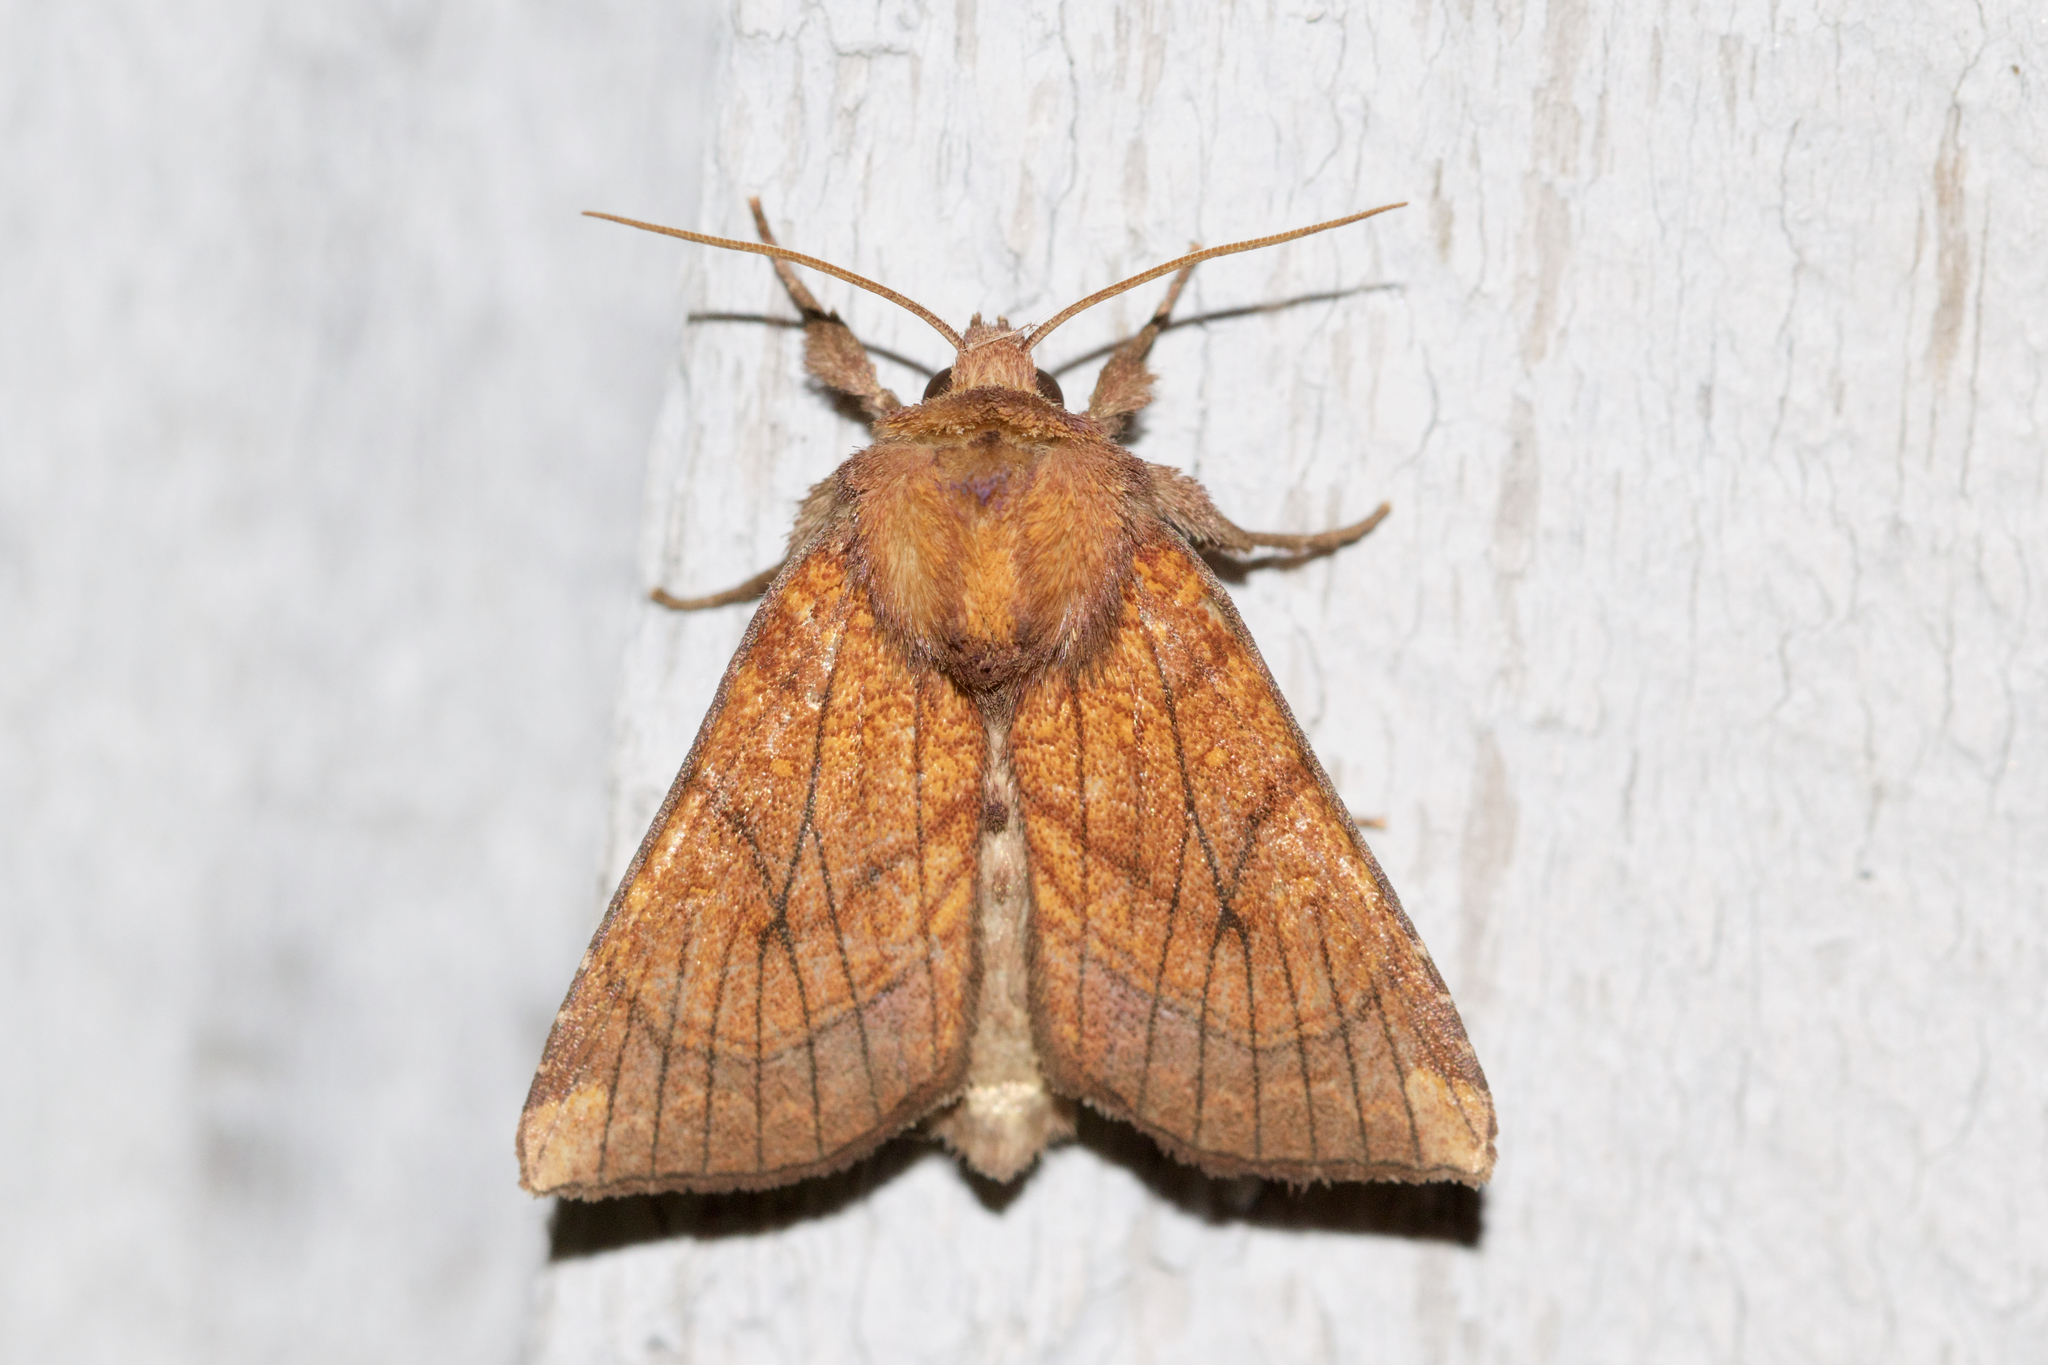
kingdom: Animalia
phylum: Arthropoda
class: Insecta
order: Lepidoptera
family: Noctuidae
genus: Papaipema
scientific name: Papaipema inquaesita
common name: Sensitive fern borer moth
